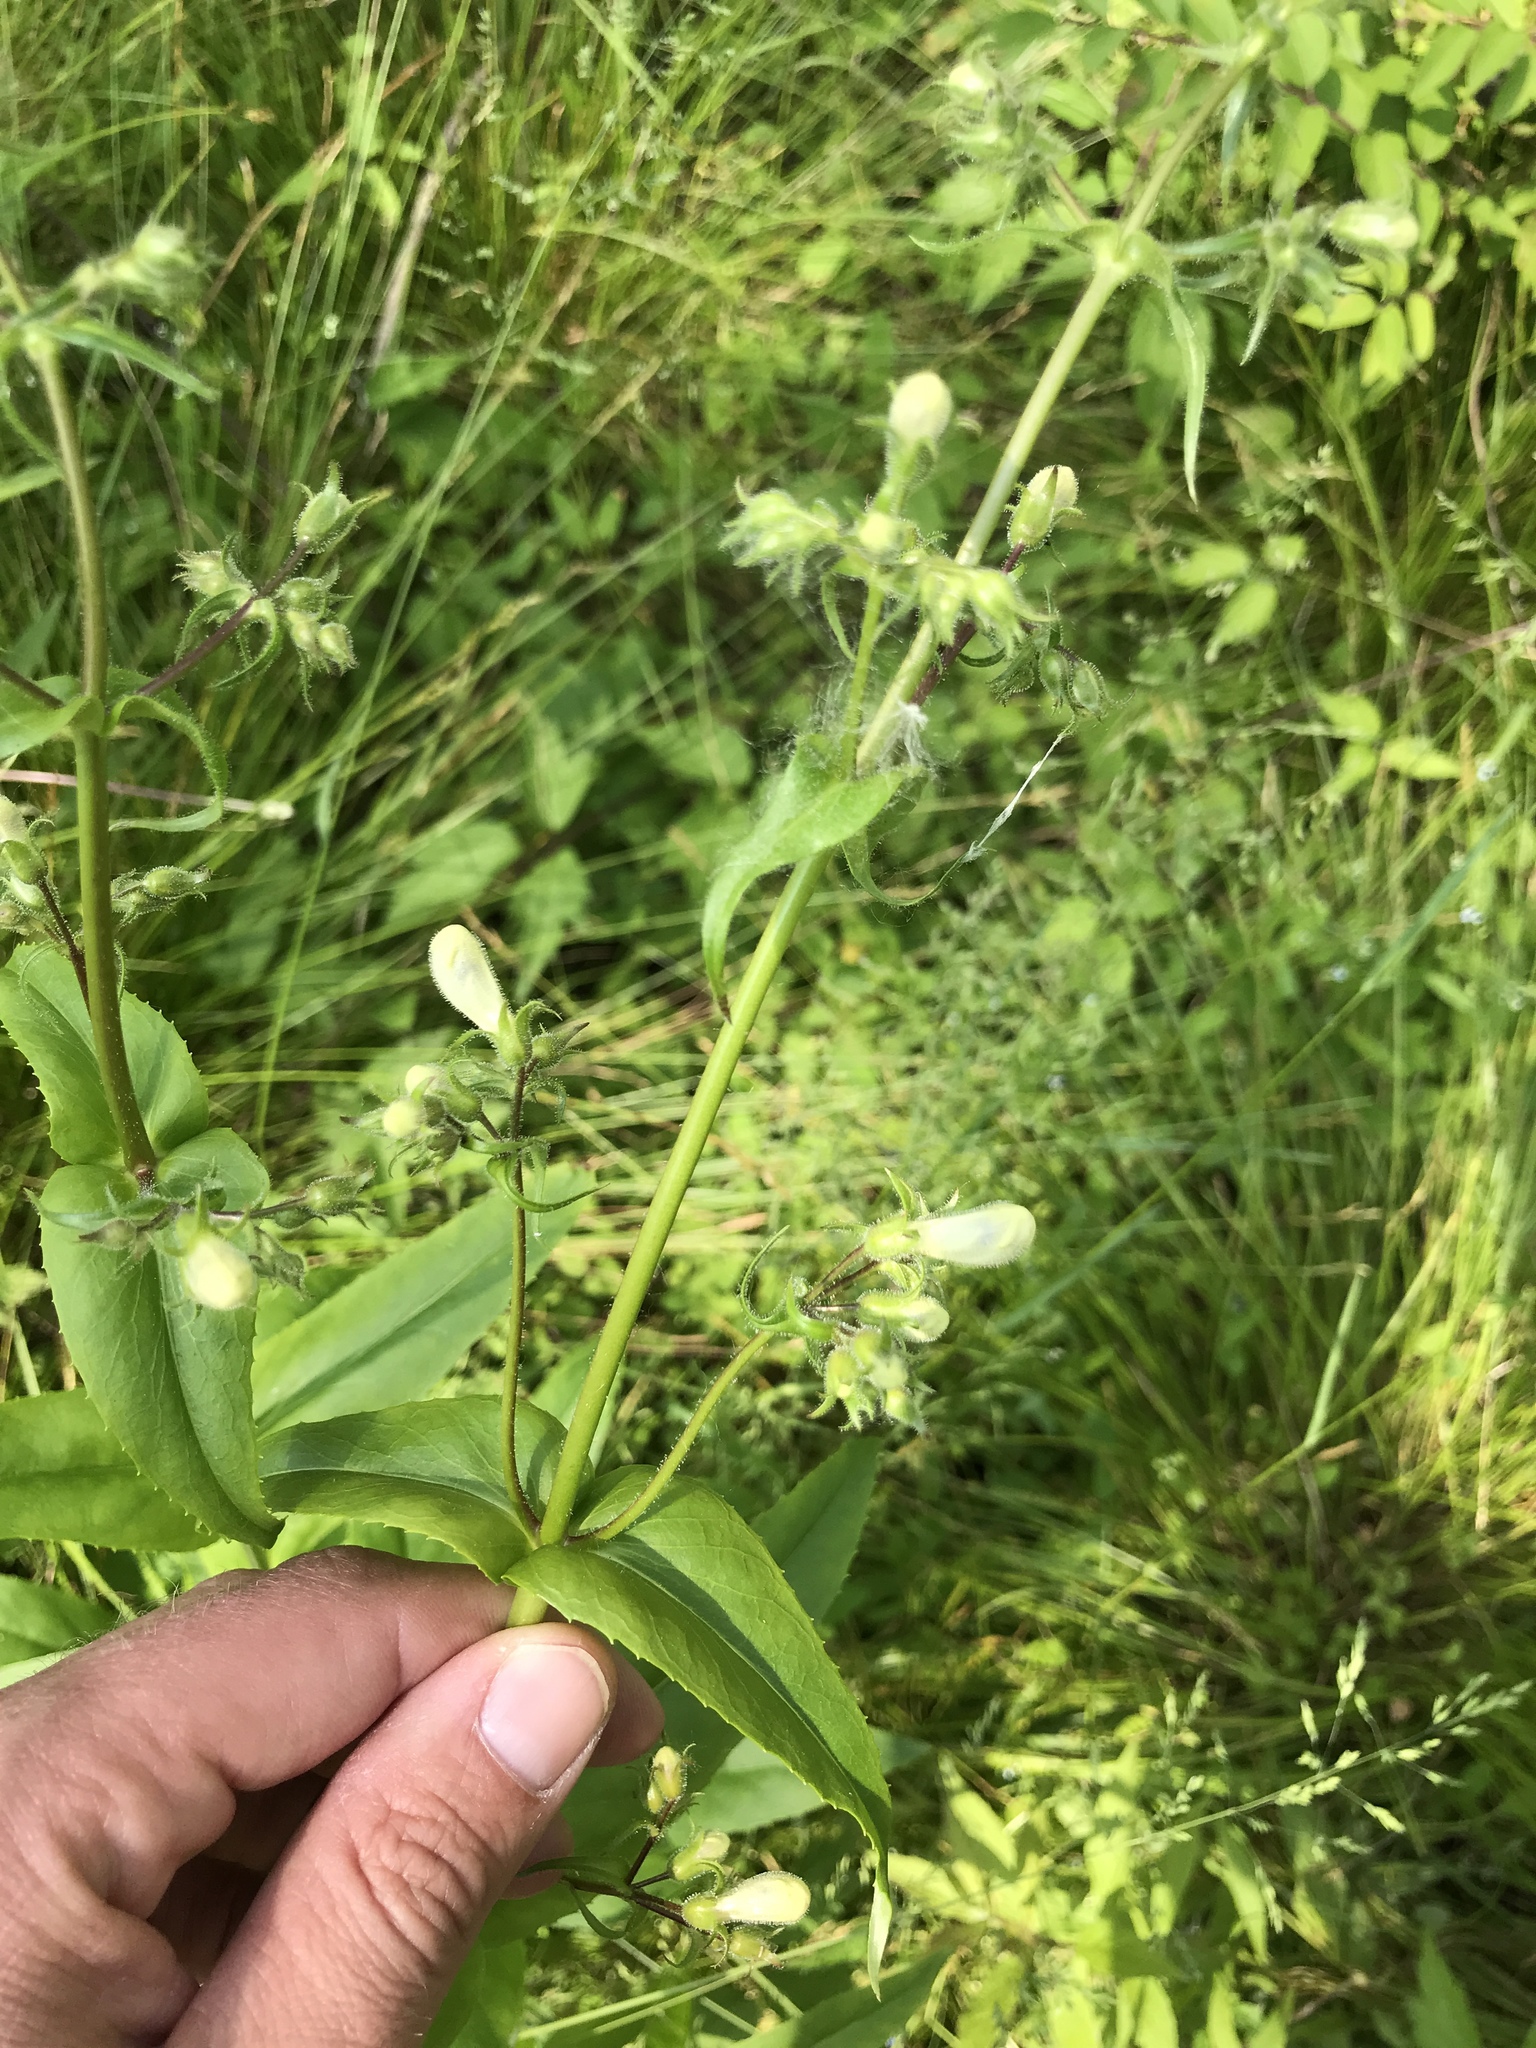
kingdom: Plantae
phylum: Tracheophyta
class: Magnoliopsida
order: Lamiales
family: Plantaginaceae
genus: Penstemon
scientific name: Penstemon digitalis
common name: Foxglove beardtongue
